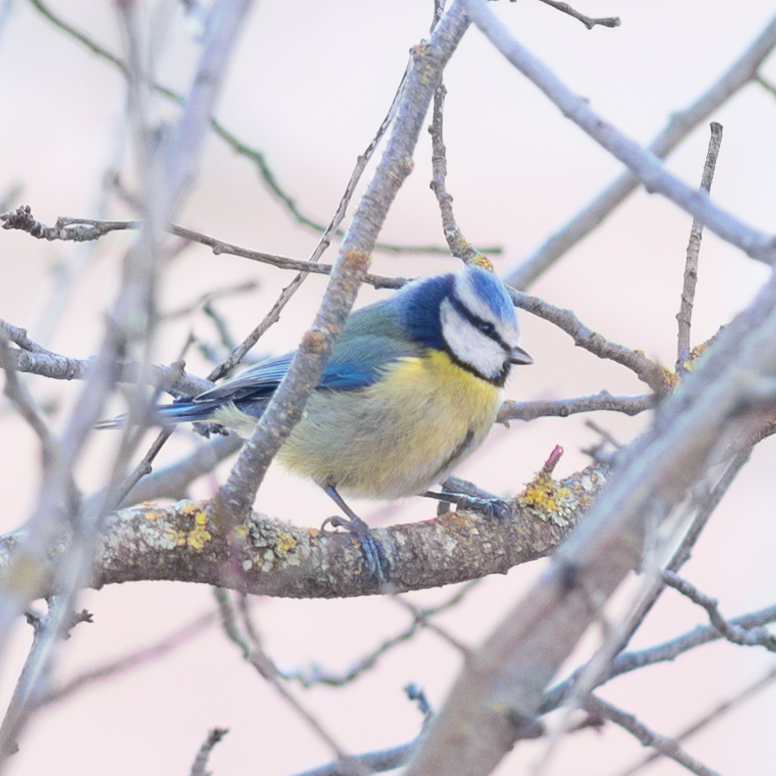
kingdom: Animalia
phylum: Chordata
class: Aves
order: Passeriformes
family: Paridae
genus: Cyanistes
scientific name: Cyanistes caeruleus
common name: Eurasian blue tit
